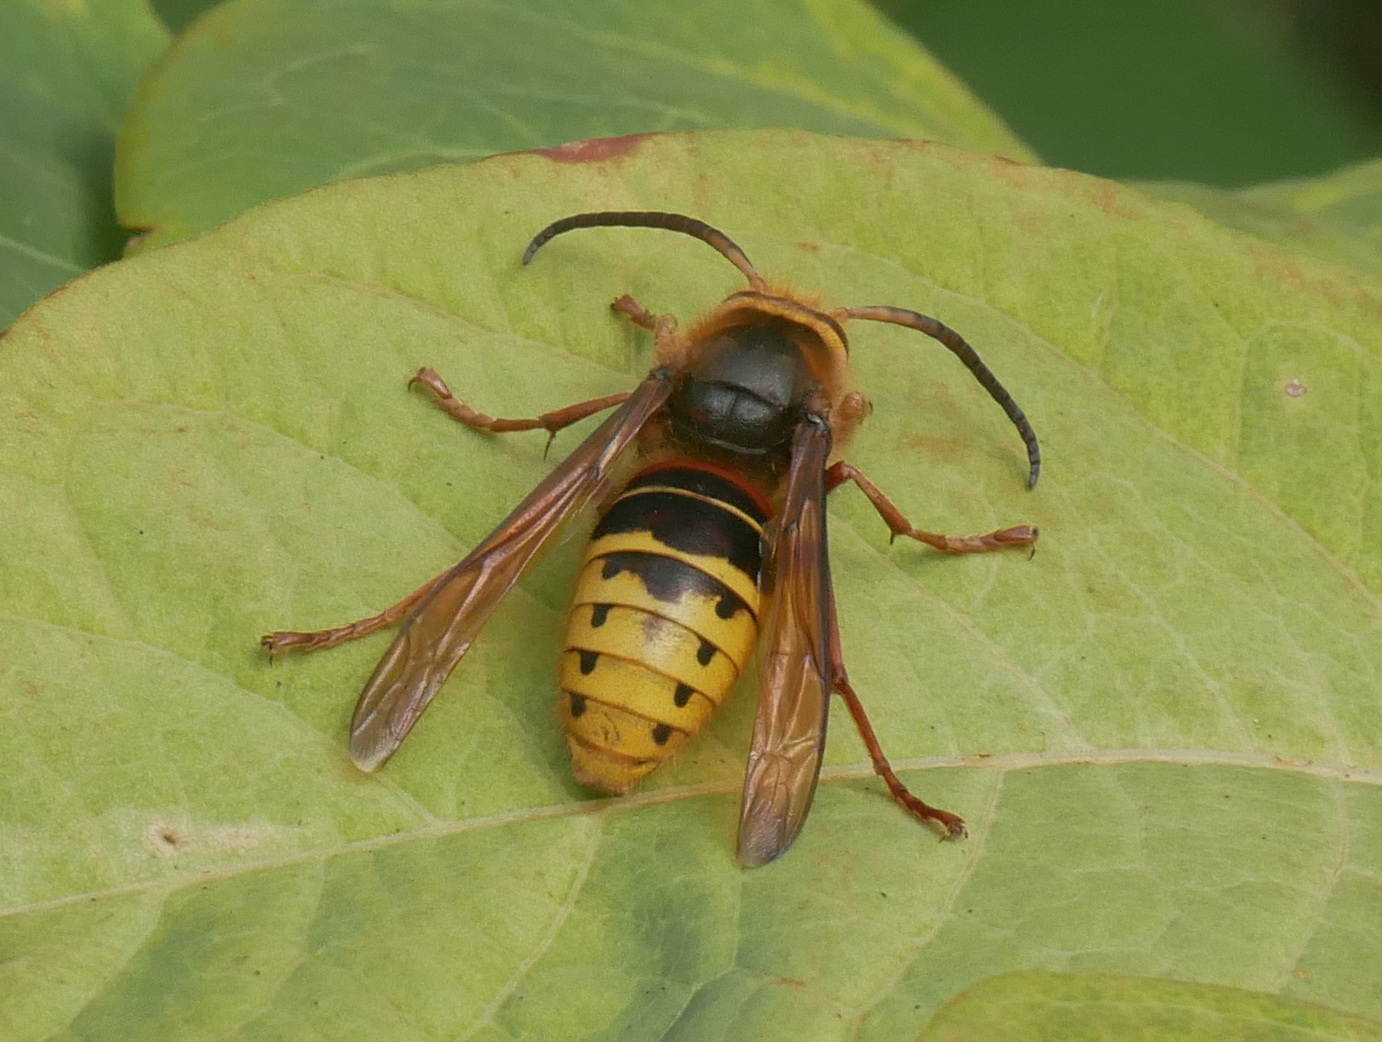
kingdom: Animalia
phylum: Arthropoda
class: Insecta
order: Hymenoptera
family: Vespidae
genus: Vespa
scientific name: Vespa crabro
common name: Hornet
